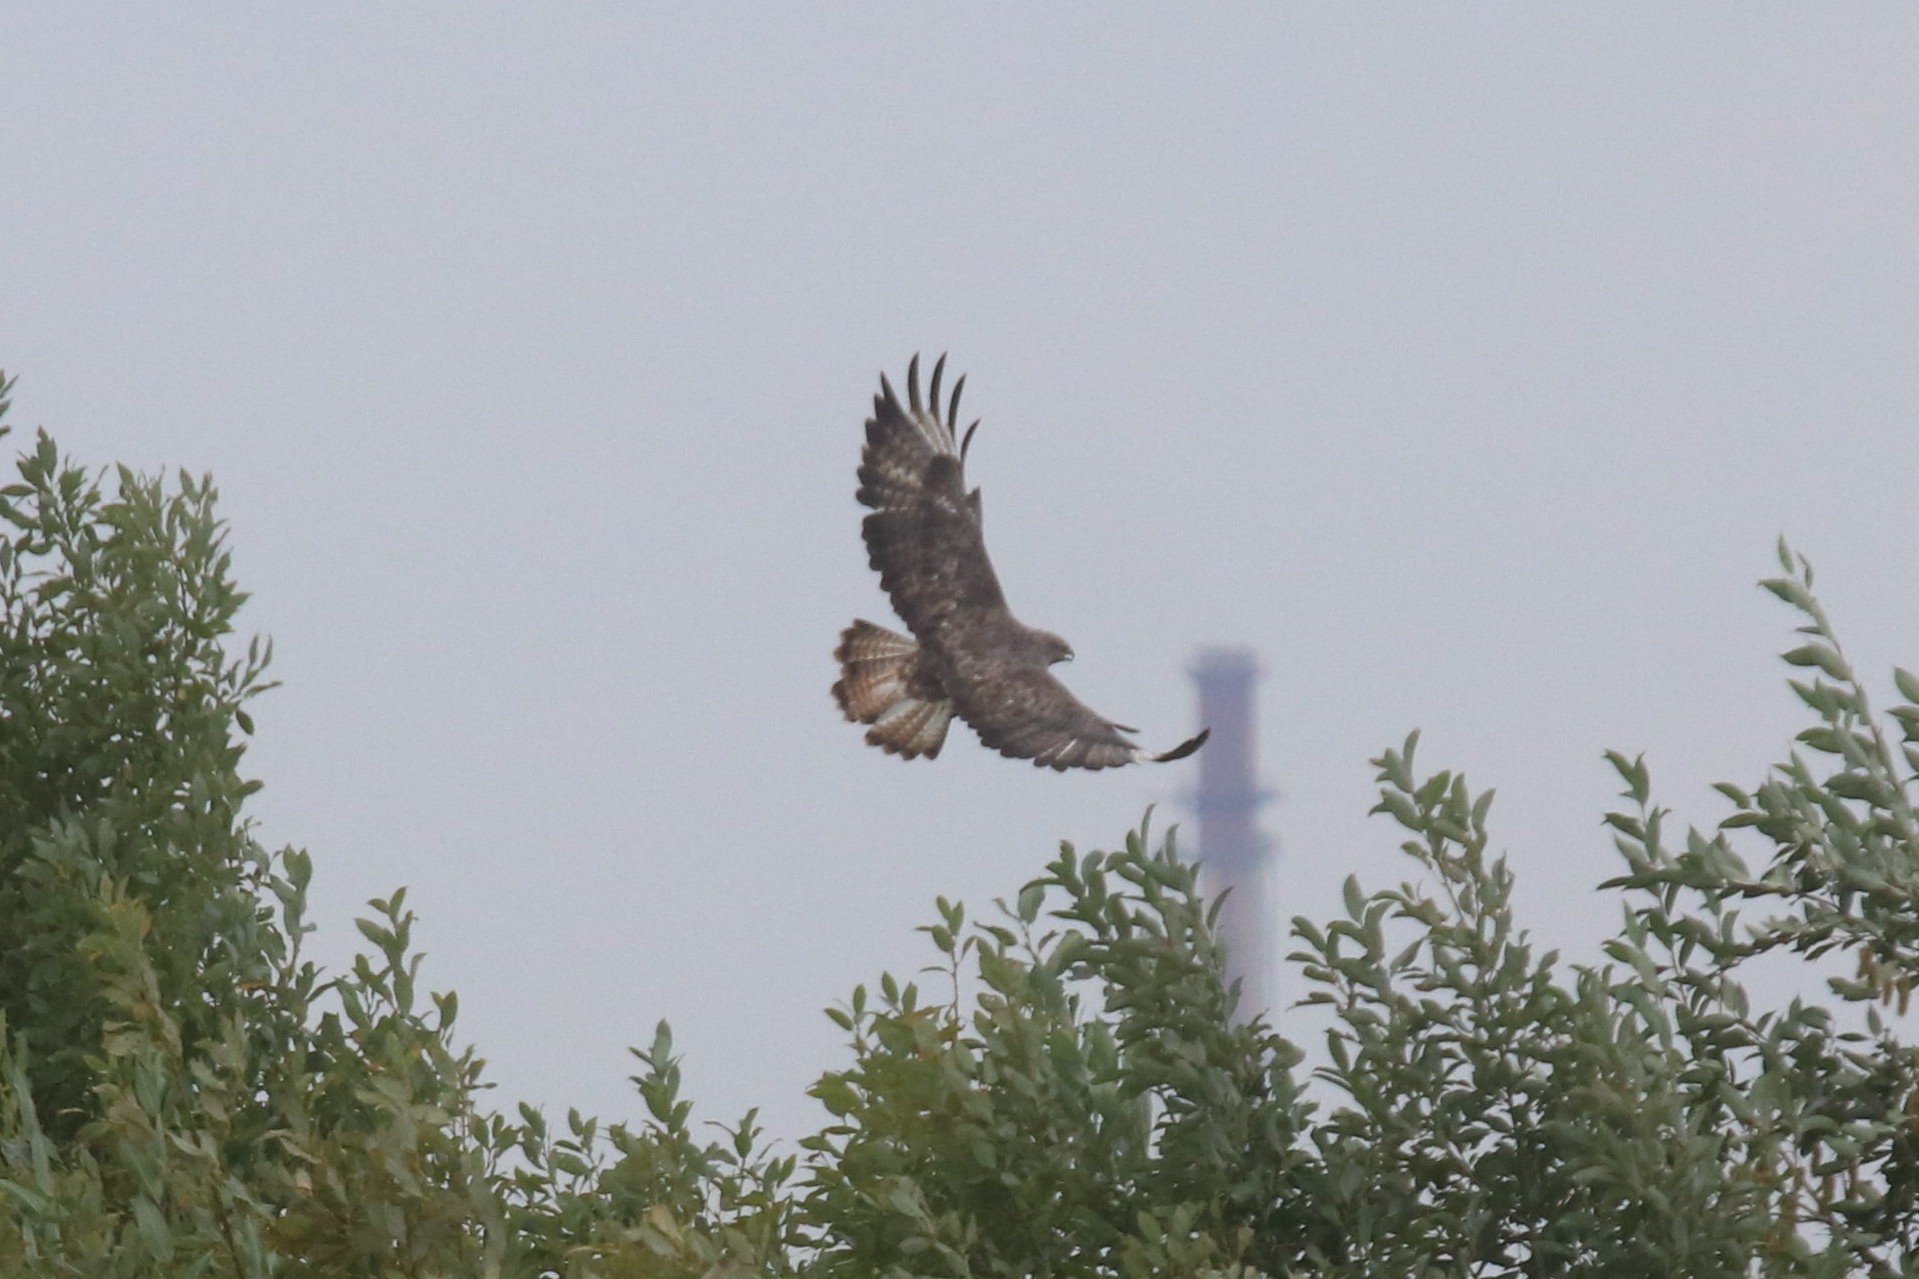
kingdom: Animalia
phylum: Chordata
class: Aves
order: Accipitriformes
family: Accipitridae
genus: Buteo
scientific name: Buteo buteo
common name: Common buzzard
